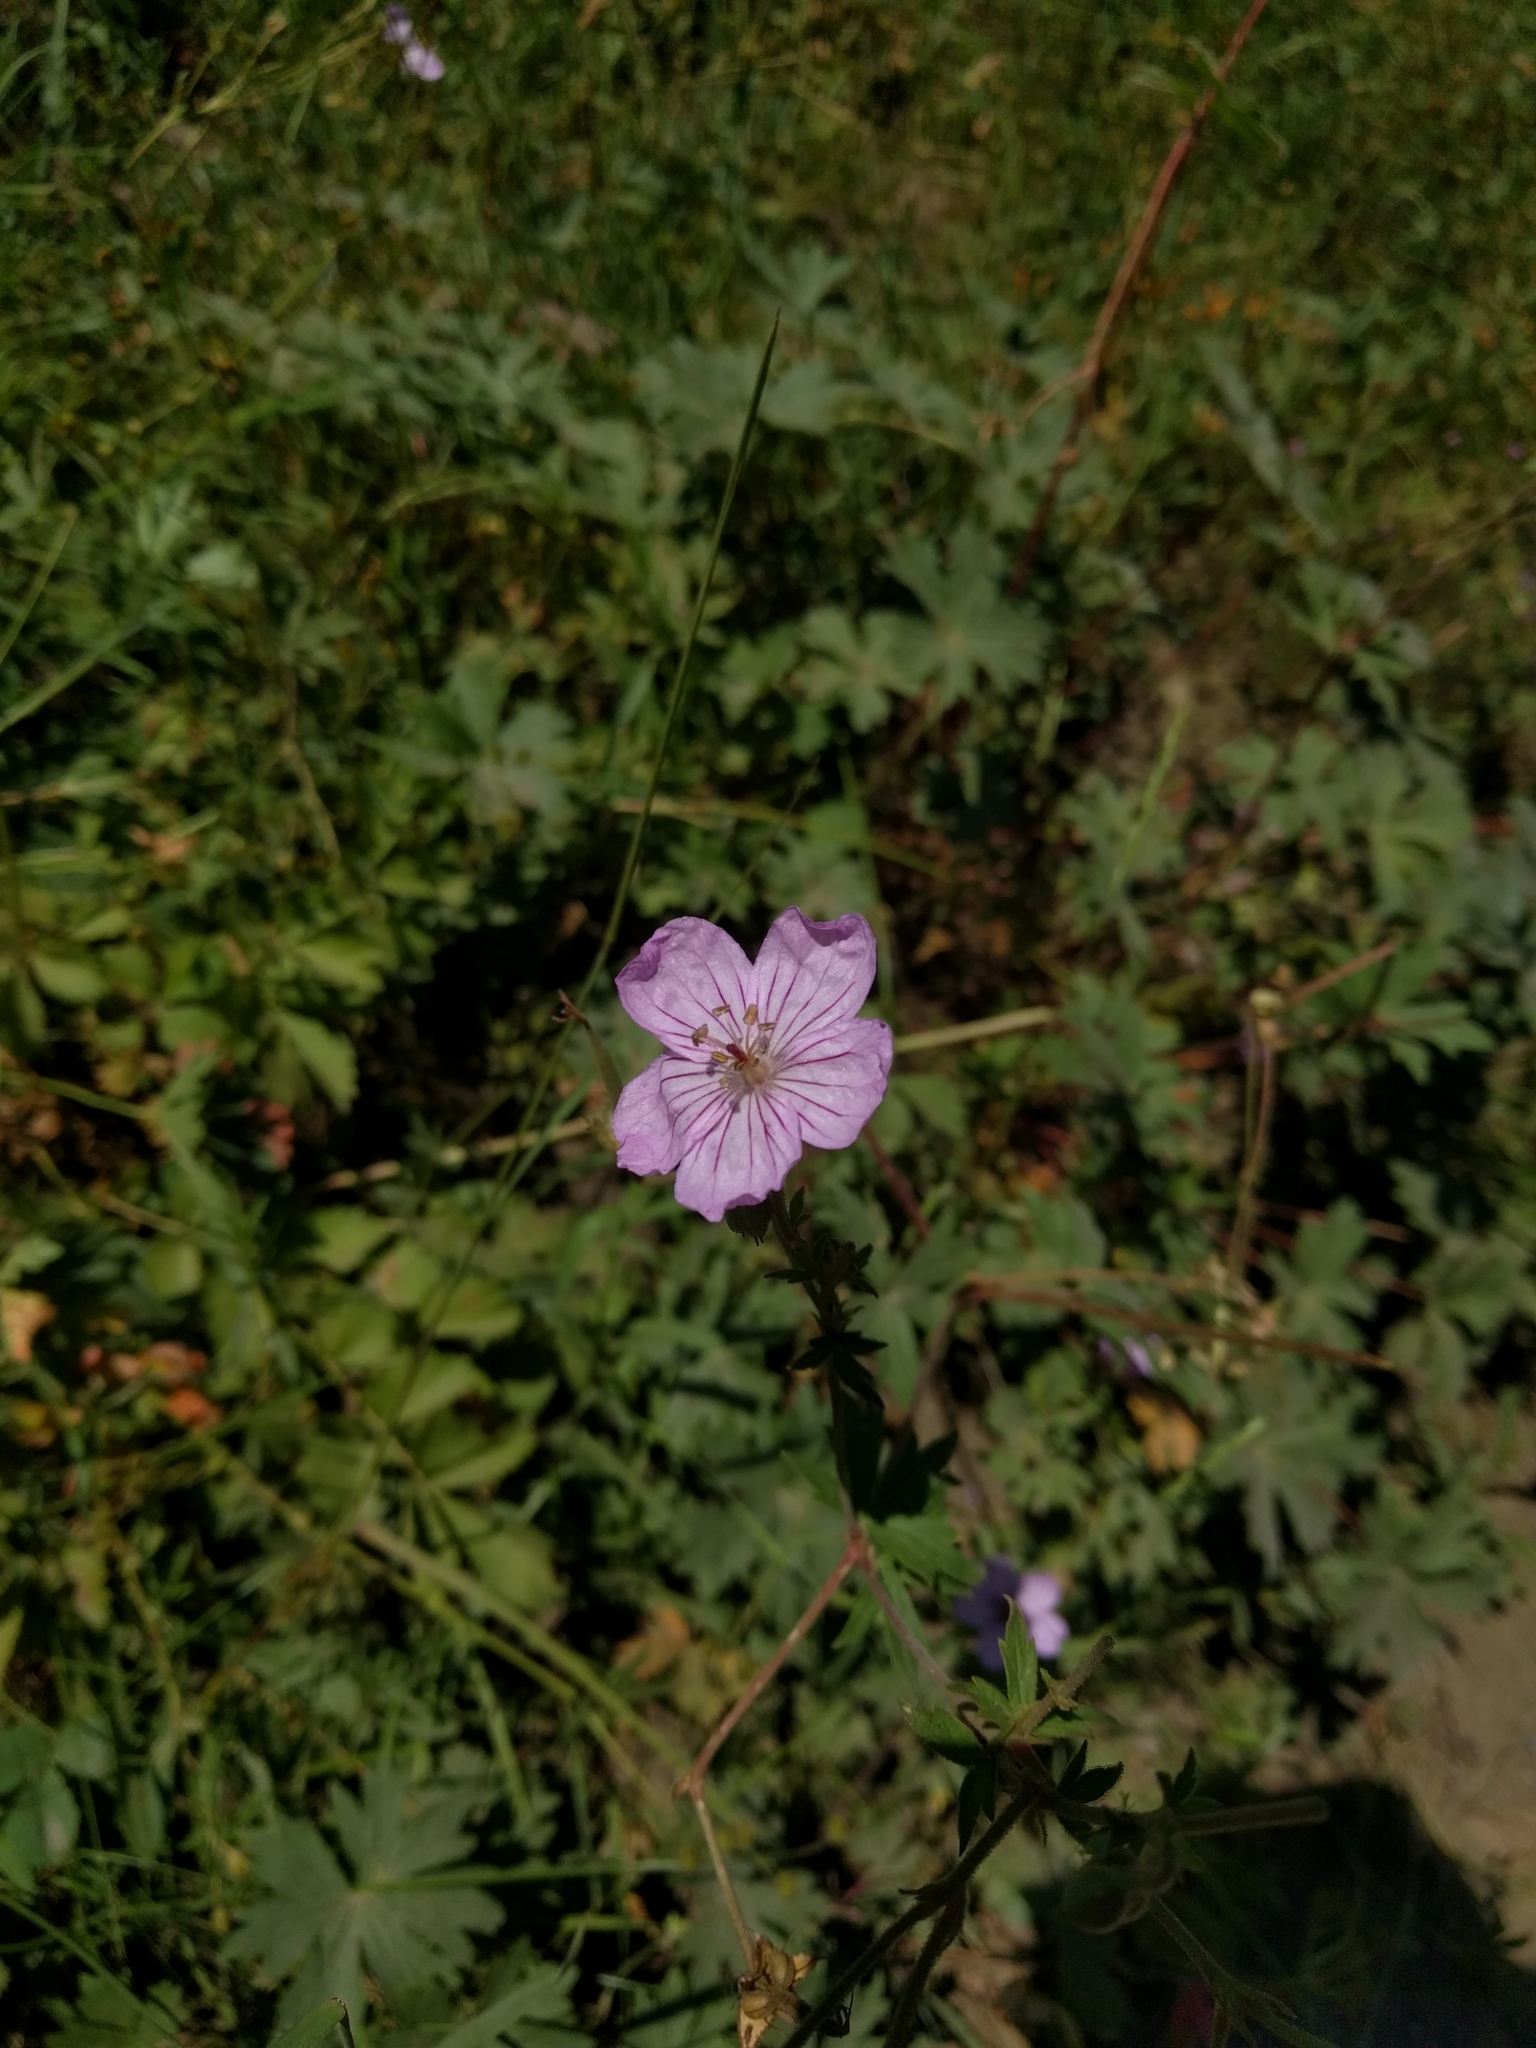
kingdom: Plantae
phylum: Tracheophyta
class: Magnoliopsida
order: Geraniales
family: Geraniaceae
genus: Geranium
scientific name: Geranium viscosissimum
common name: Purple geranium
